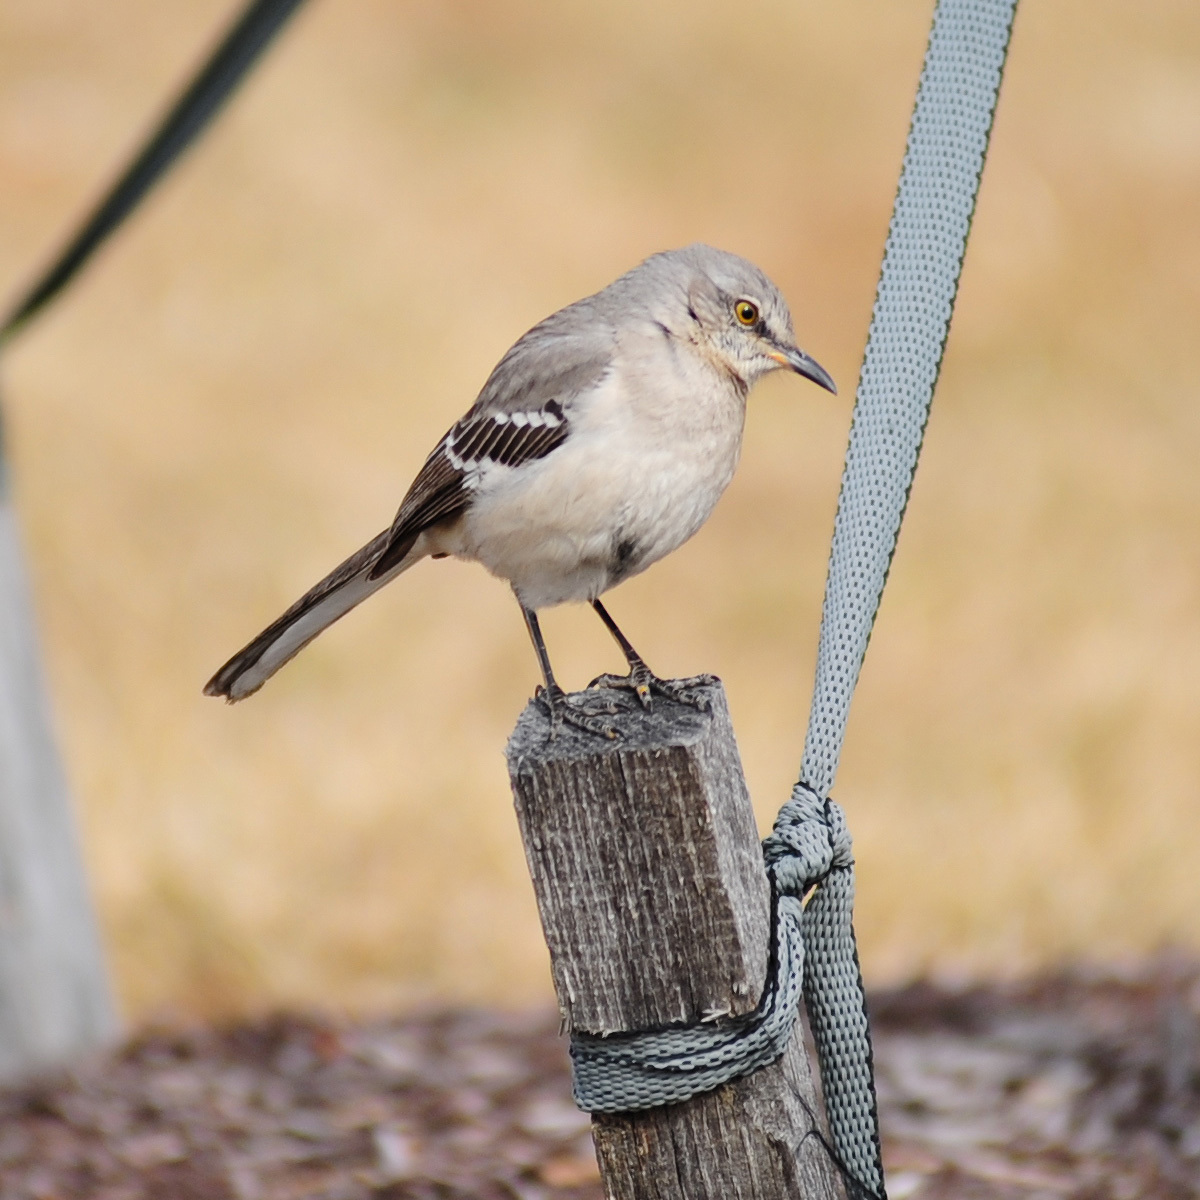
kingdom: Animalia
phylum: Chordata
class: Aves
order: Passeriformes
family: Mimidae
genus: Mimus
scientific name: Mimus polyglottos
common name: Northern mockingbird
